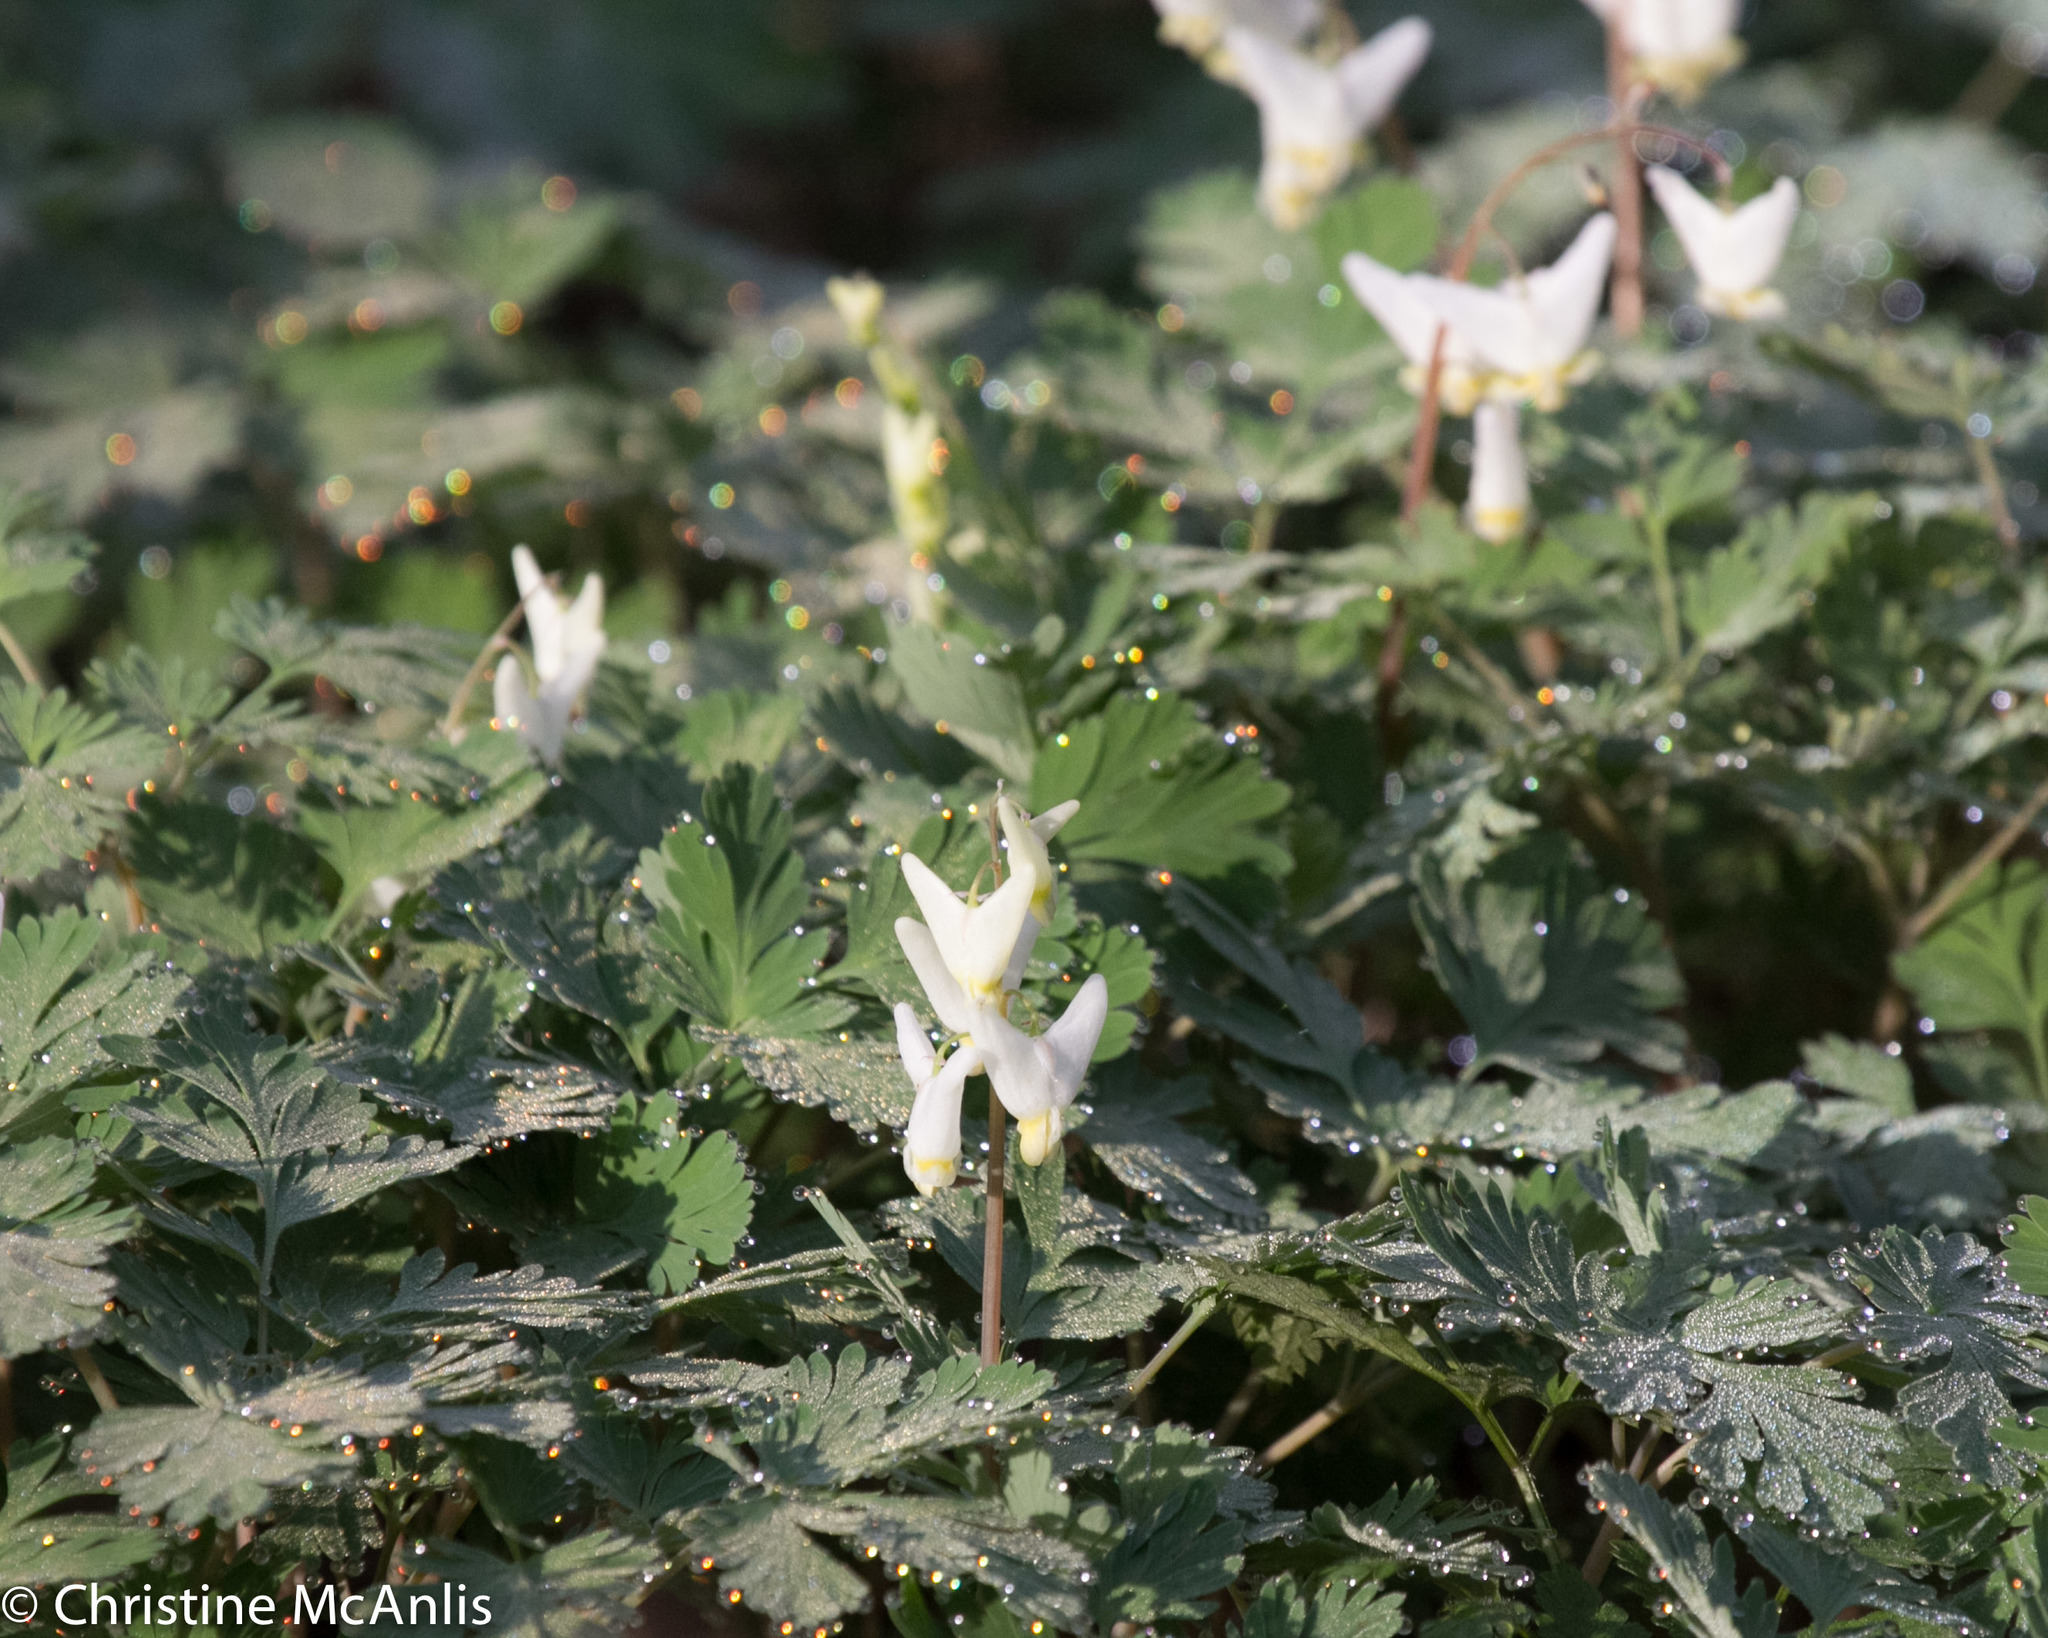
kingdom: Plantae
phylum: Tracheophyta
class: Magnoliopsida
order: Ranunculales
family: Papaveraceae
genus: Dicentra
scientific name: Dicentra cucullaria
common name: Dutchman's breeches
